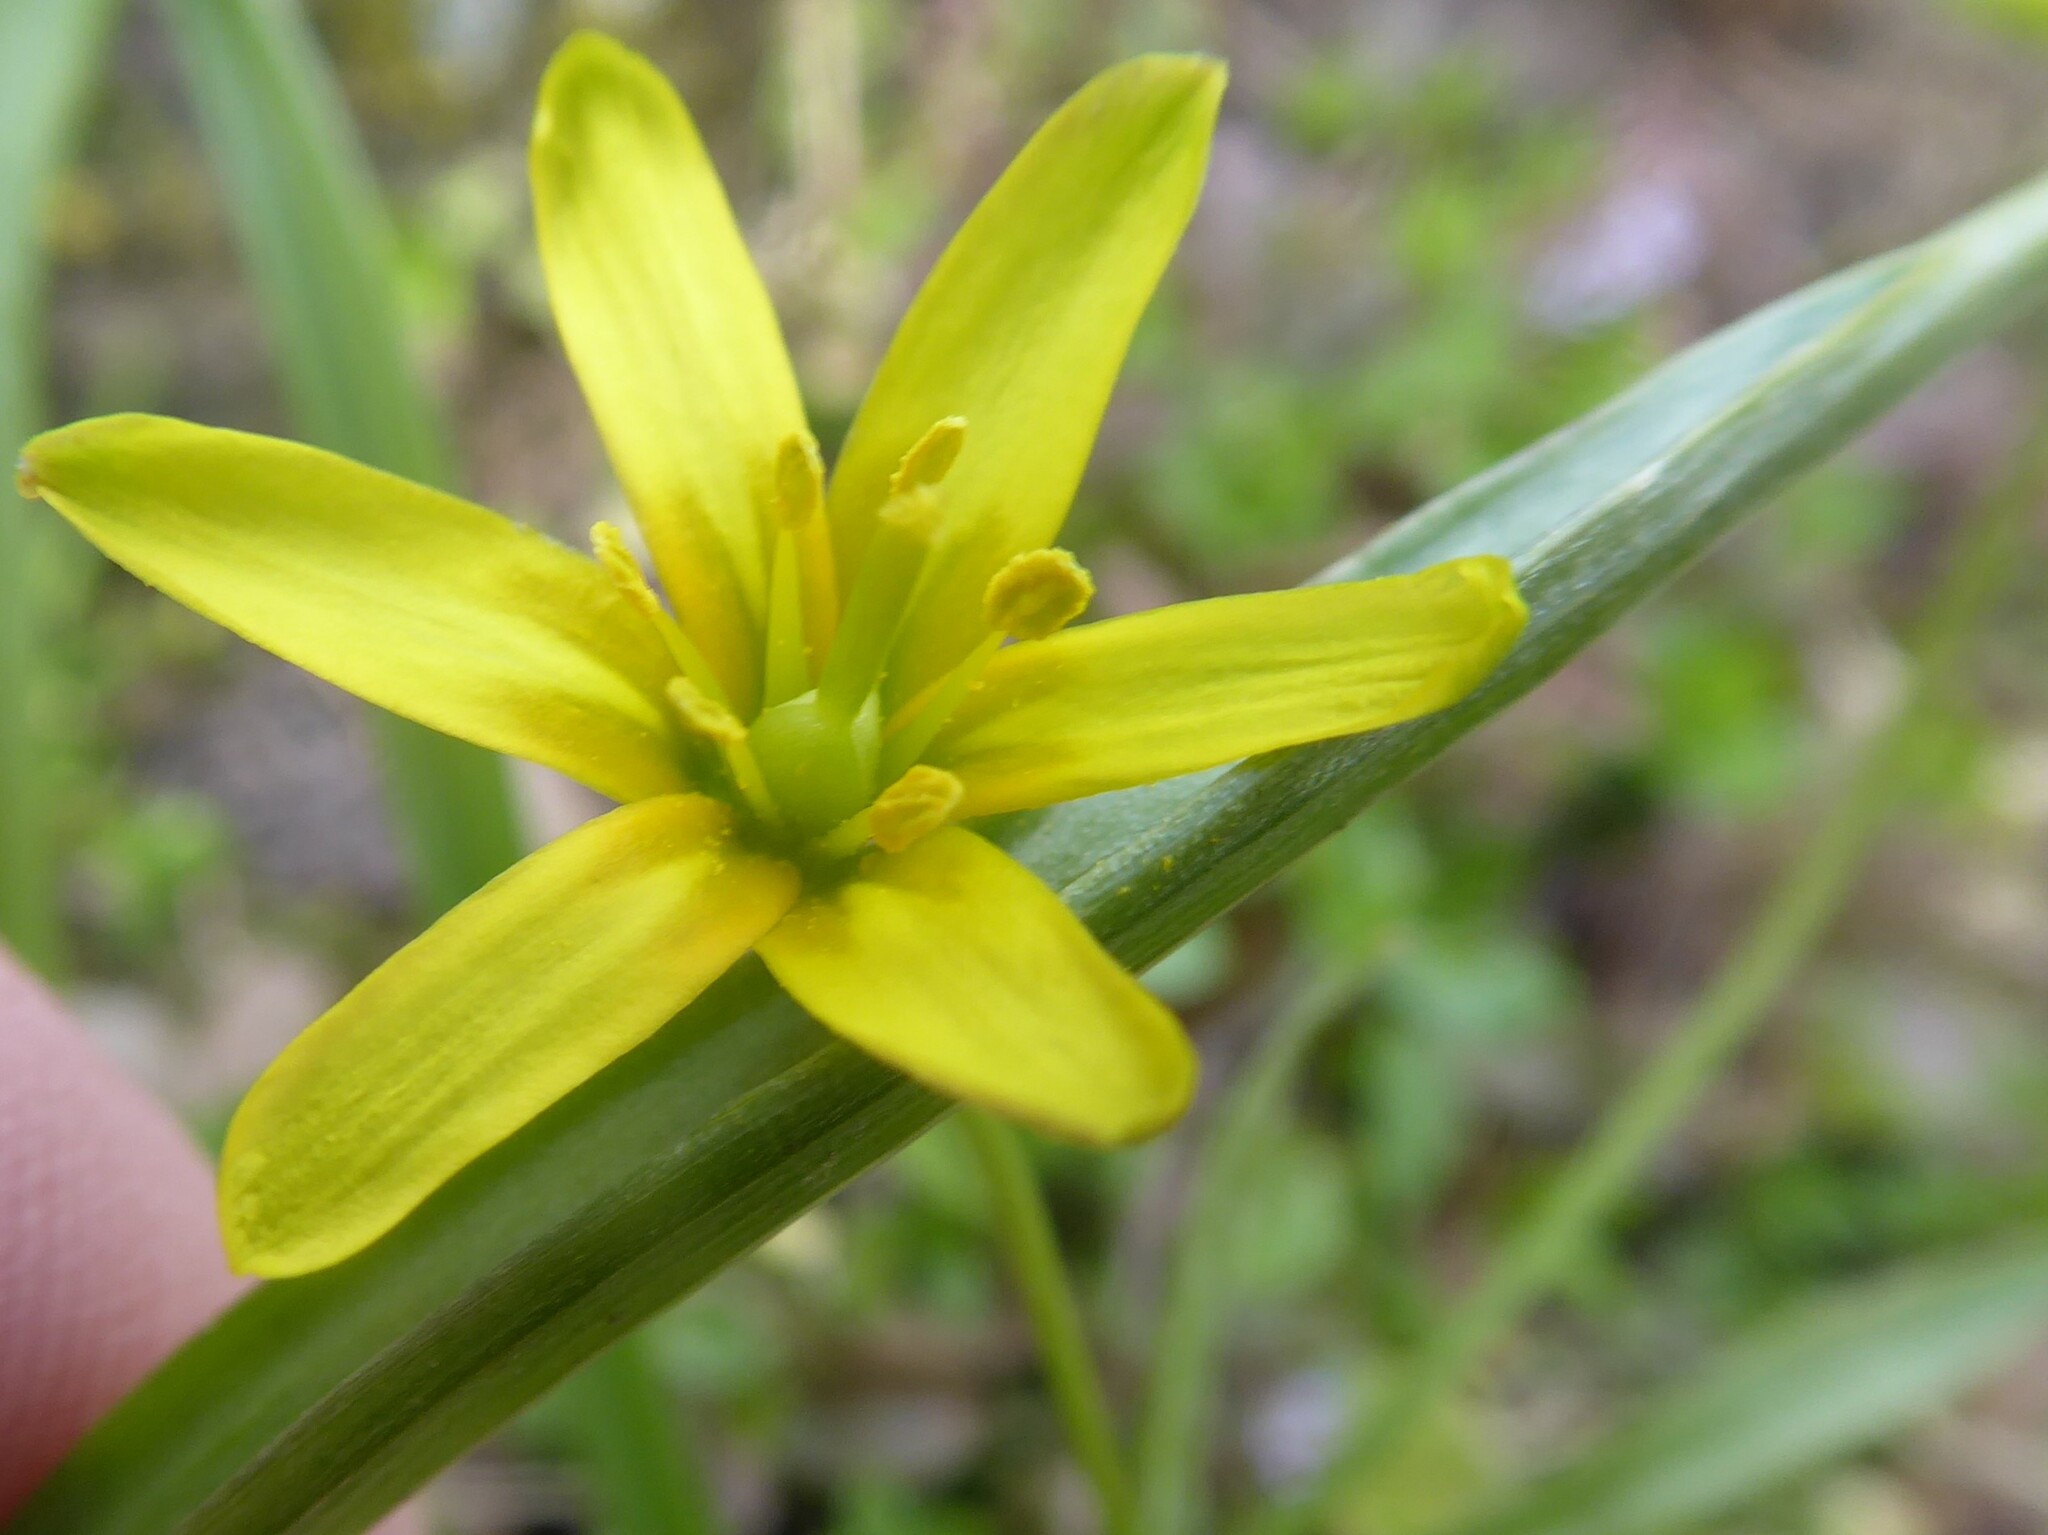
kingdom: Plantae
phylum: Tracheophyta
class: Liliopsida
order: Liliales
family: Liliaceae
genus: Gagea
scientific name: Gagea lutea
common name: Yellow star-of-bethlehem
